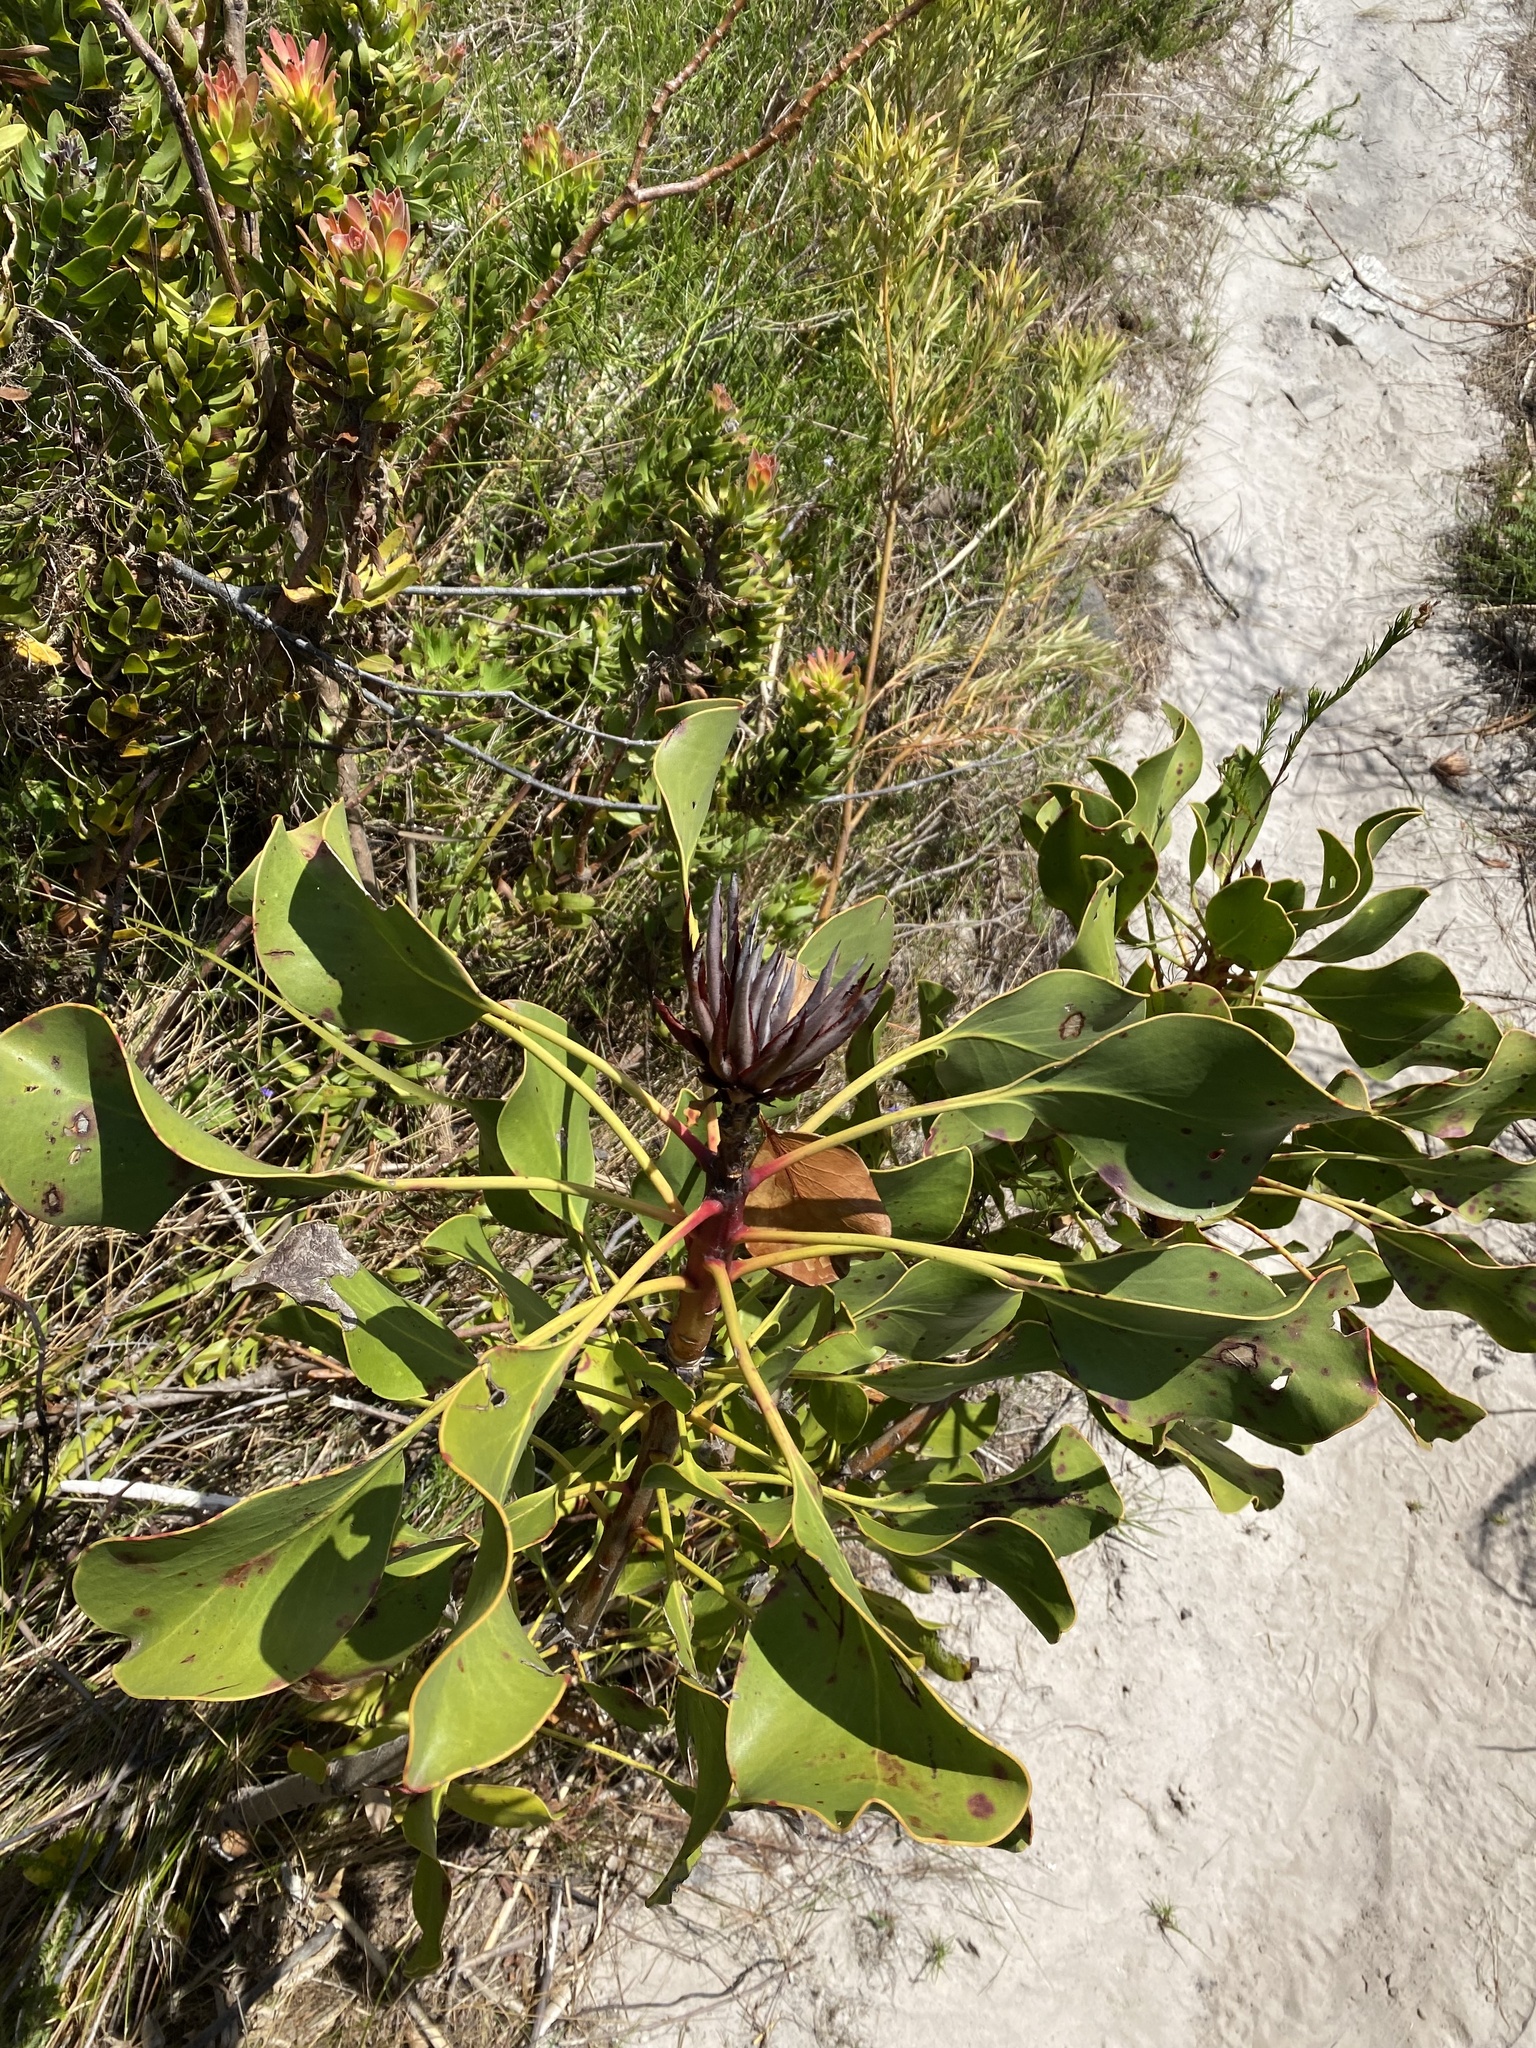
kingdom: Plantae
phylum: Tracheophyta
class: Magnoliopsida
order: Proteales
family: Proteaceae
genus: Protea
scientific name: Protea cynaroides
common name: King protea
